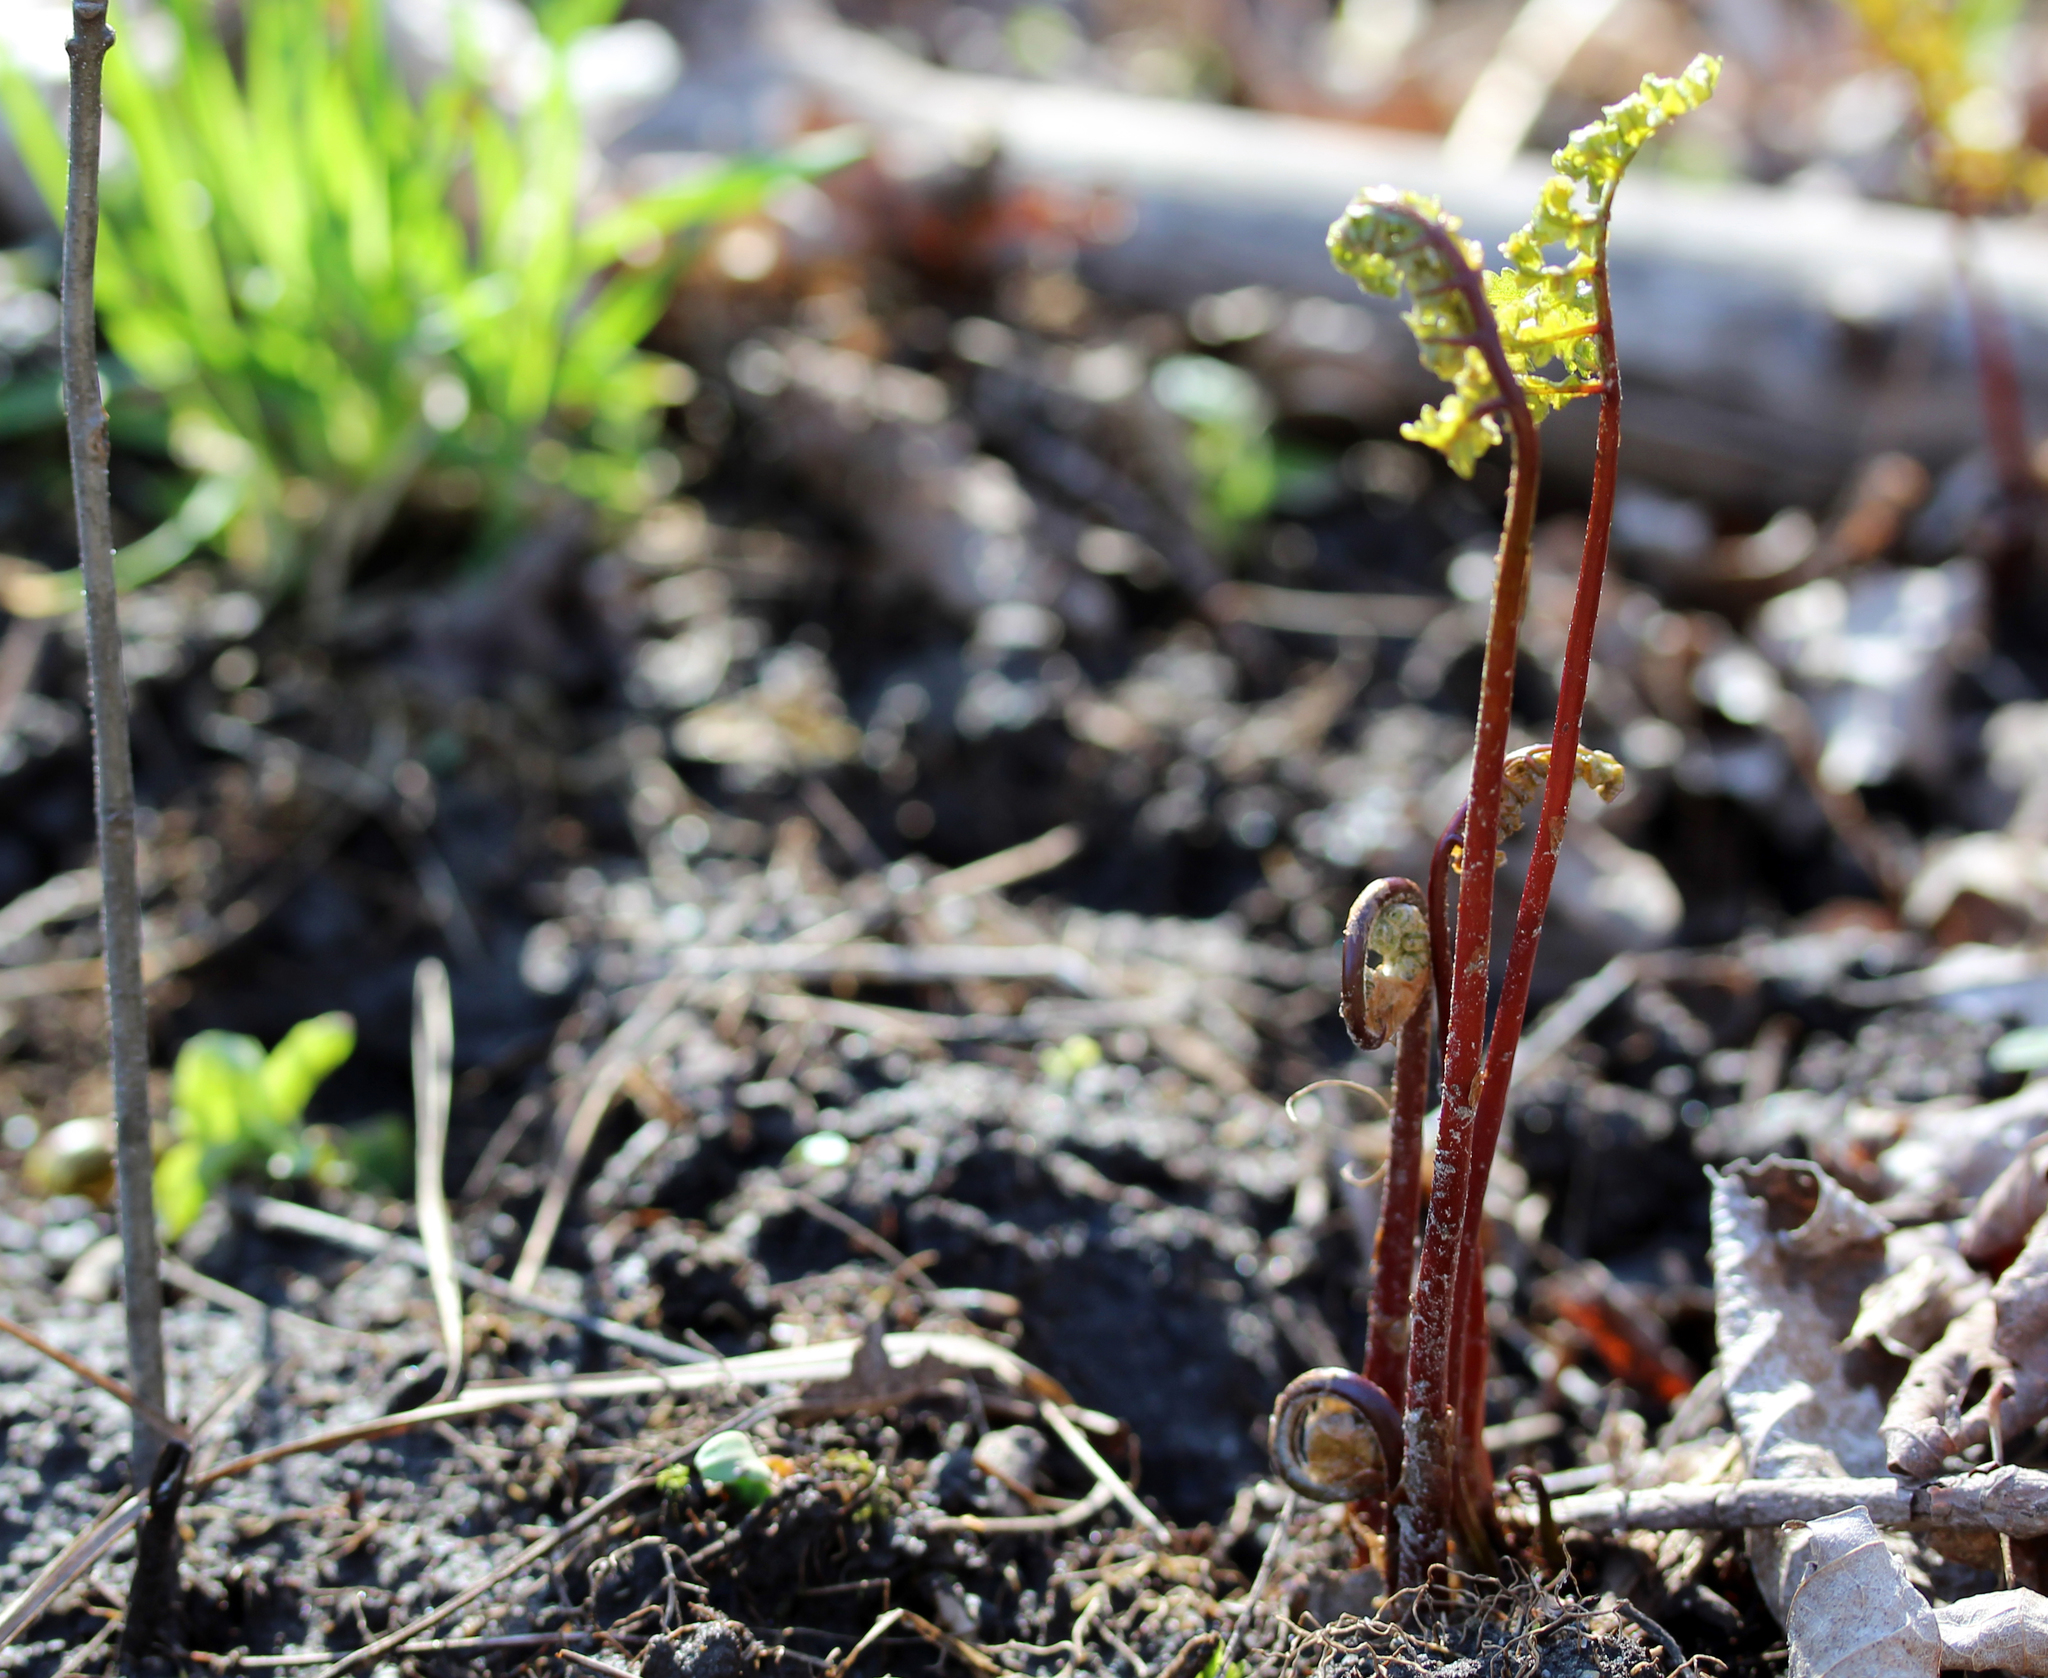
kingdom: Plantae
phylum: Tracheophyta
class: Polypodiopsida
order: Polypodiales
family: Onocleaceae
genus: Onoclea
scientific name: Onoclea sensibilis
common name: Sensitive fern
